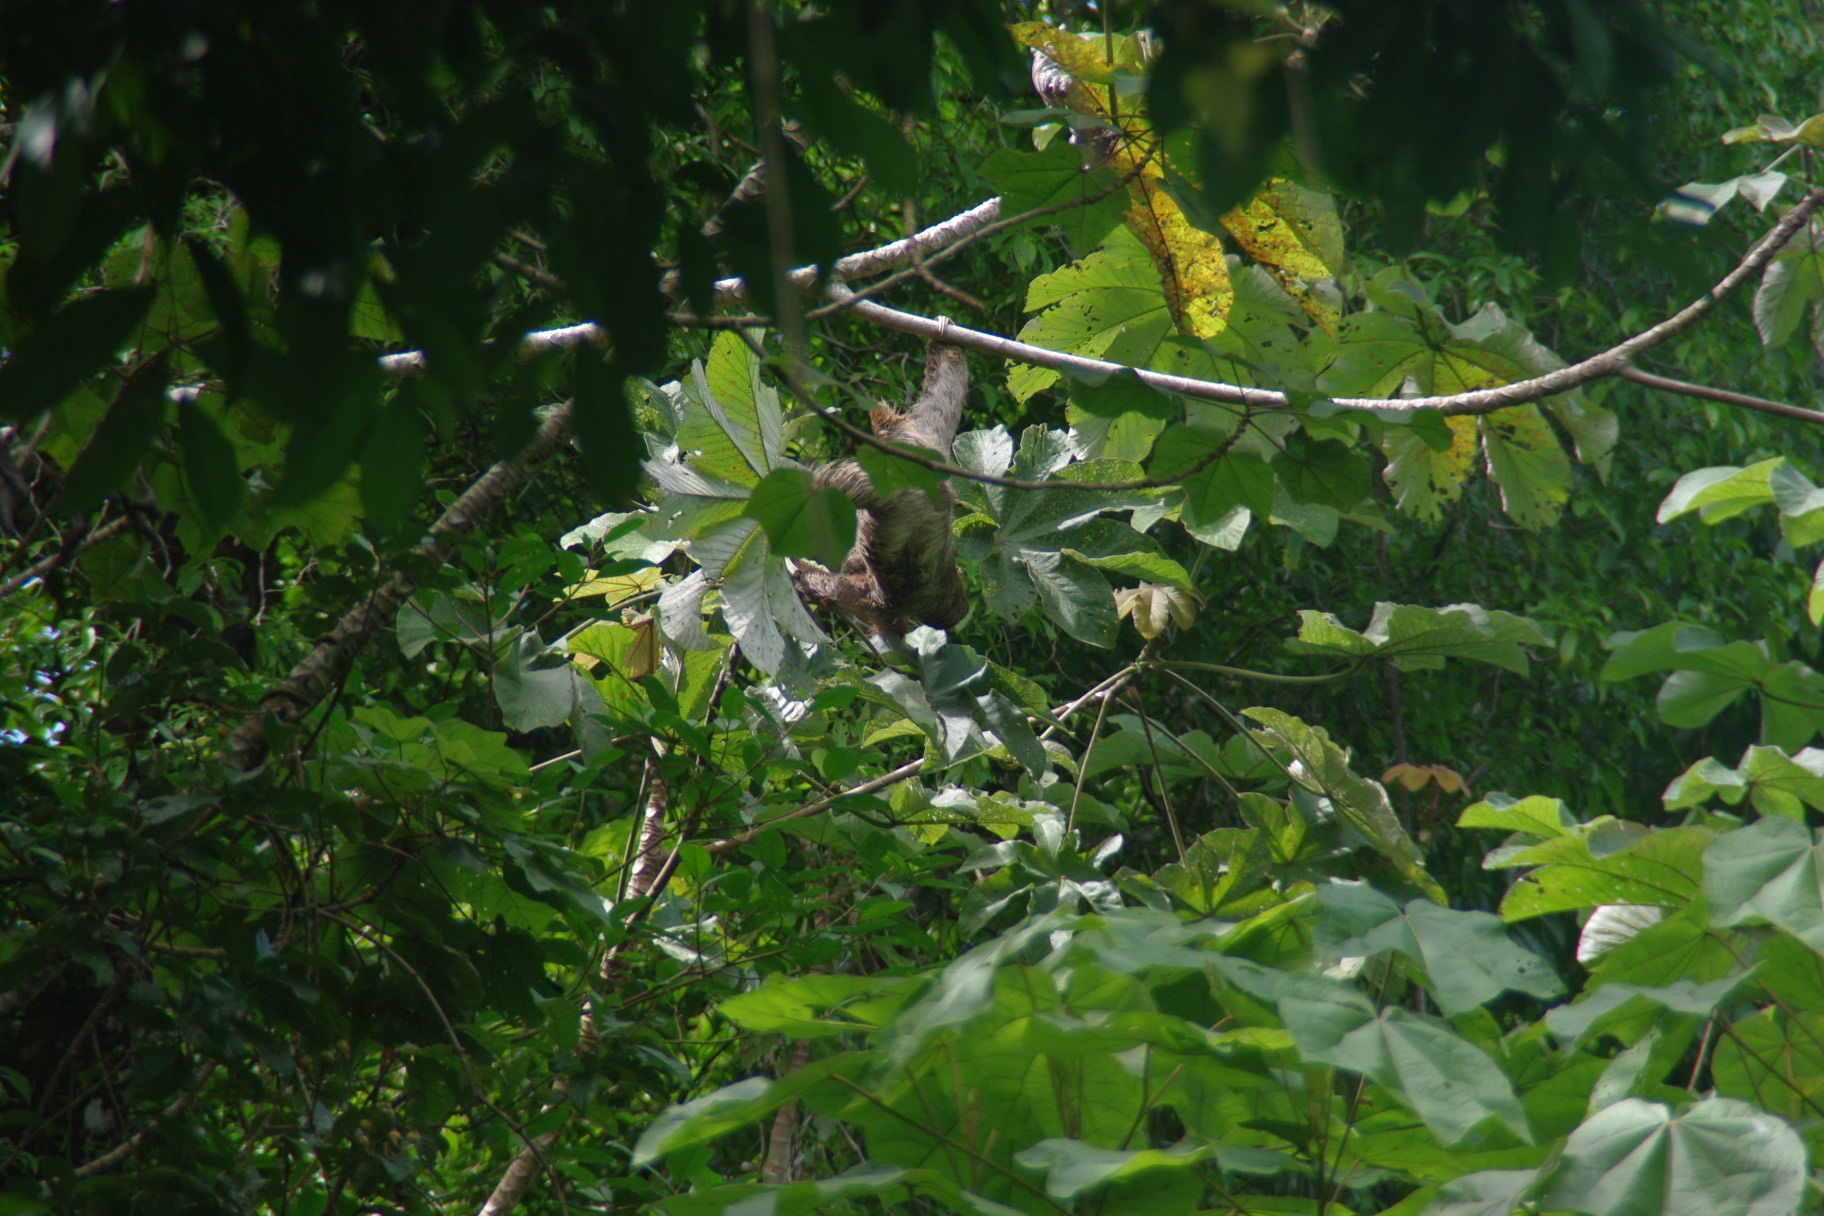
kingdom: Animalia
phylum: Chordata
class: Mammalia
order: Pilosa
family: Bradypodidae
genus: Bradypus
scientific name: Bradypus variegatus
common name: Brown-throated three-toed sloth
